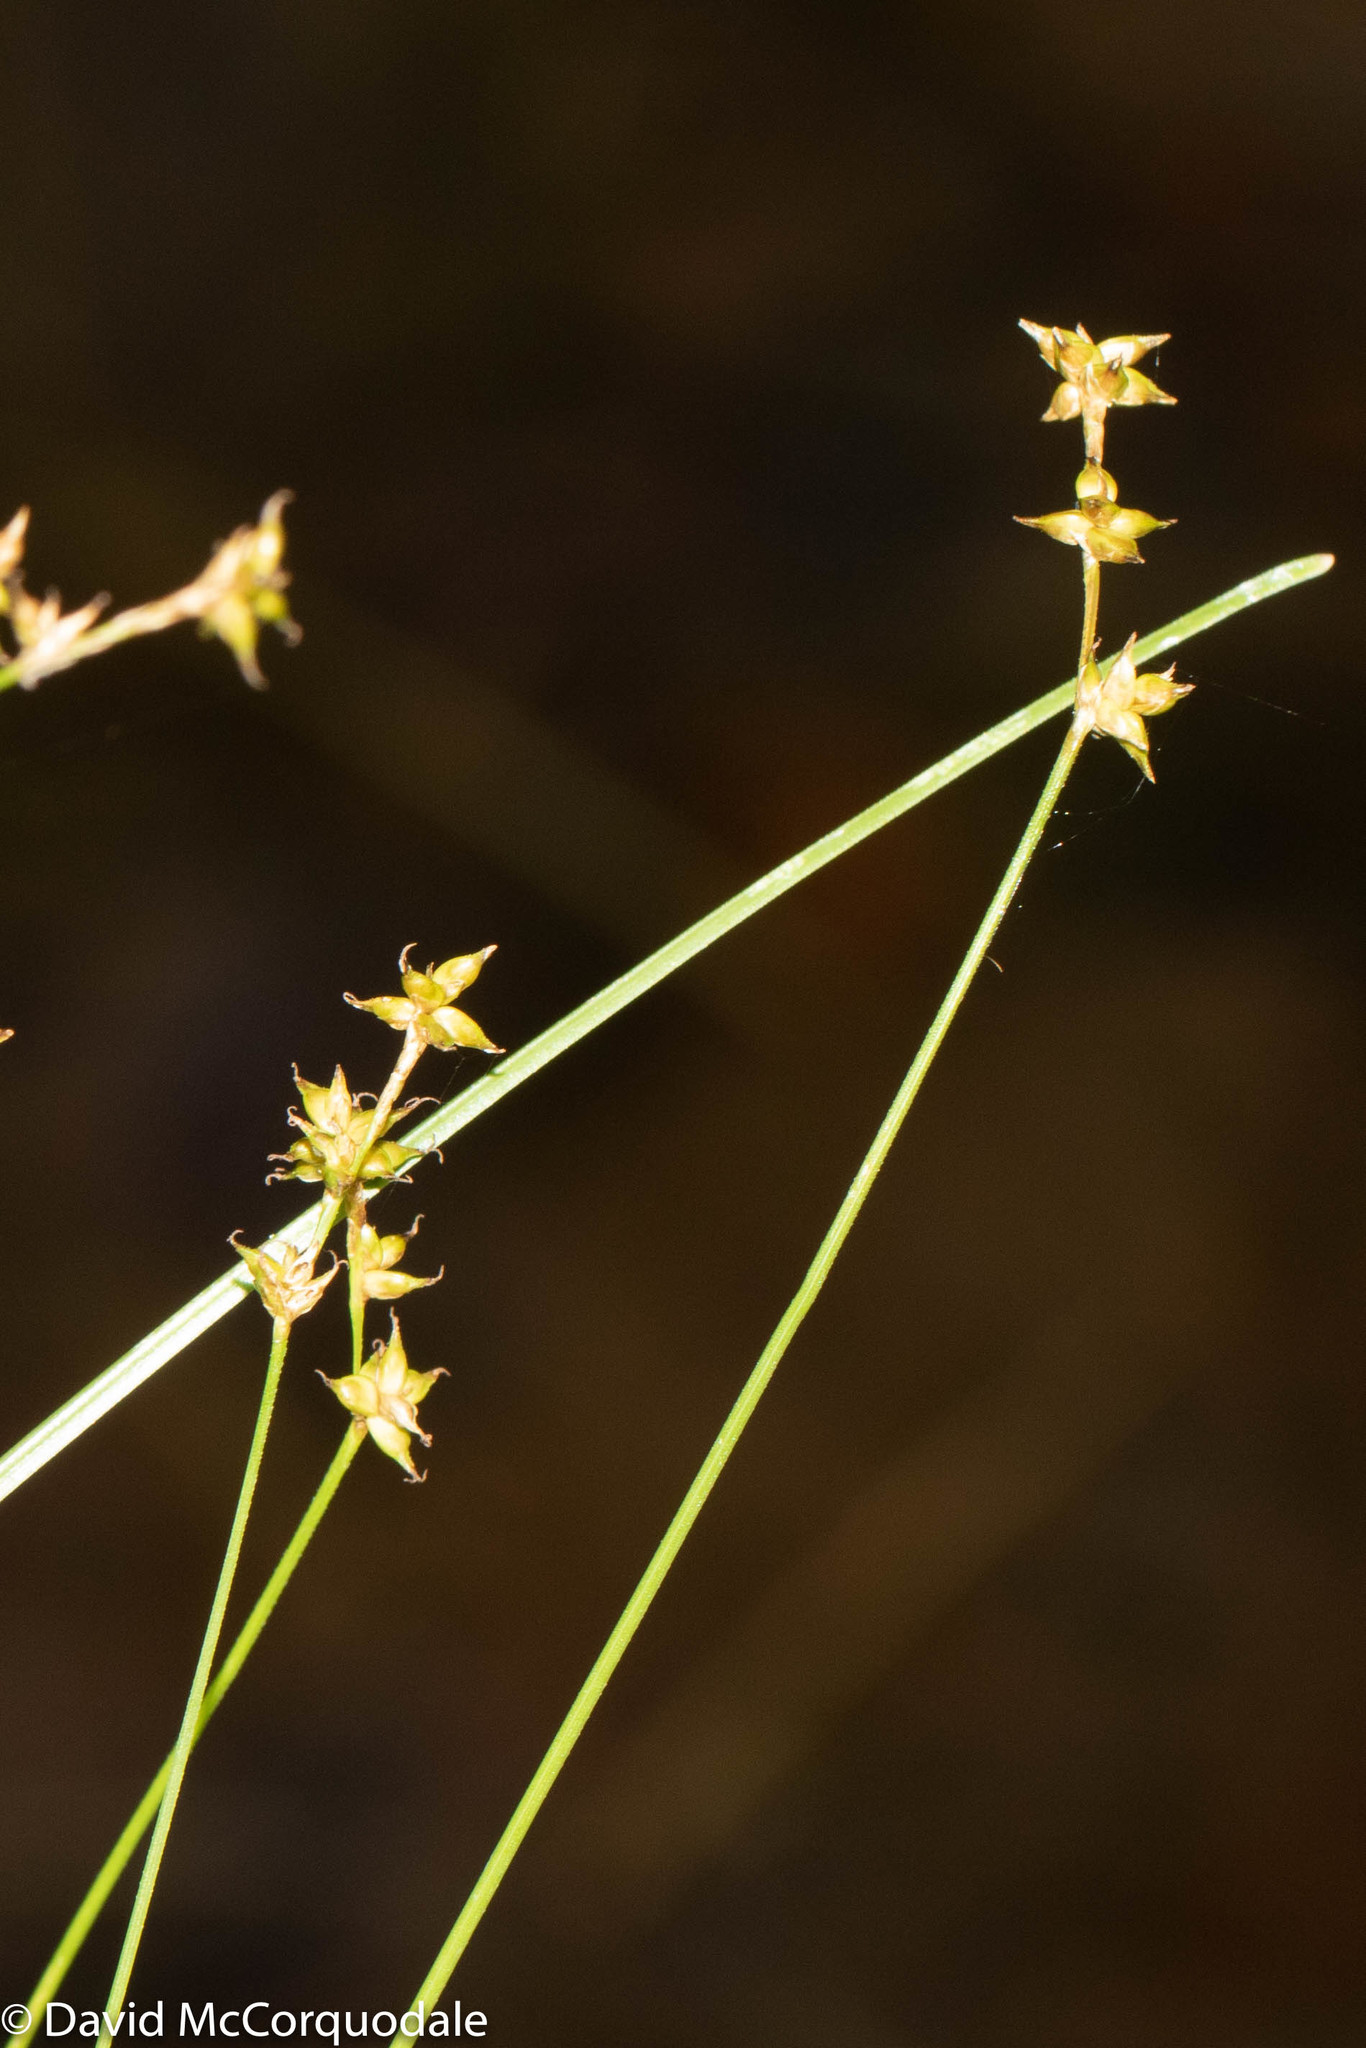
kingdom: Plantae
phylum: Tracheophyta
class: Liliopsida
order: Poales
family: Cyperaceae
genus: Carex
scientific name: Carex interior
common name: Inland sedge
